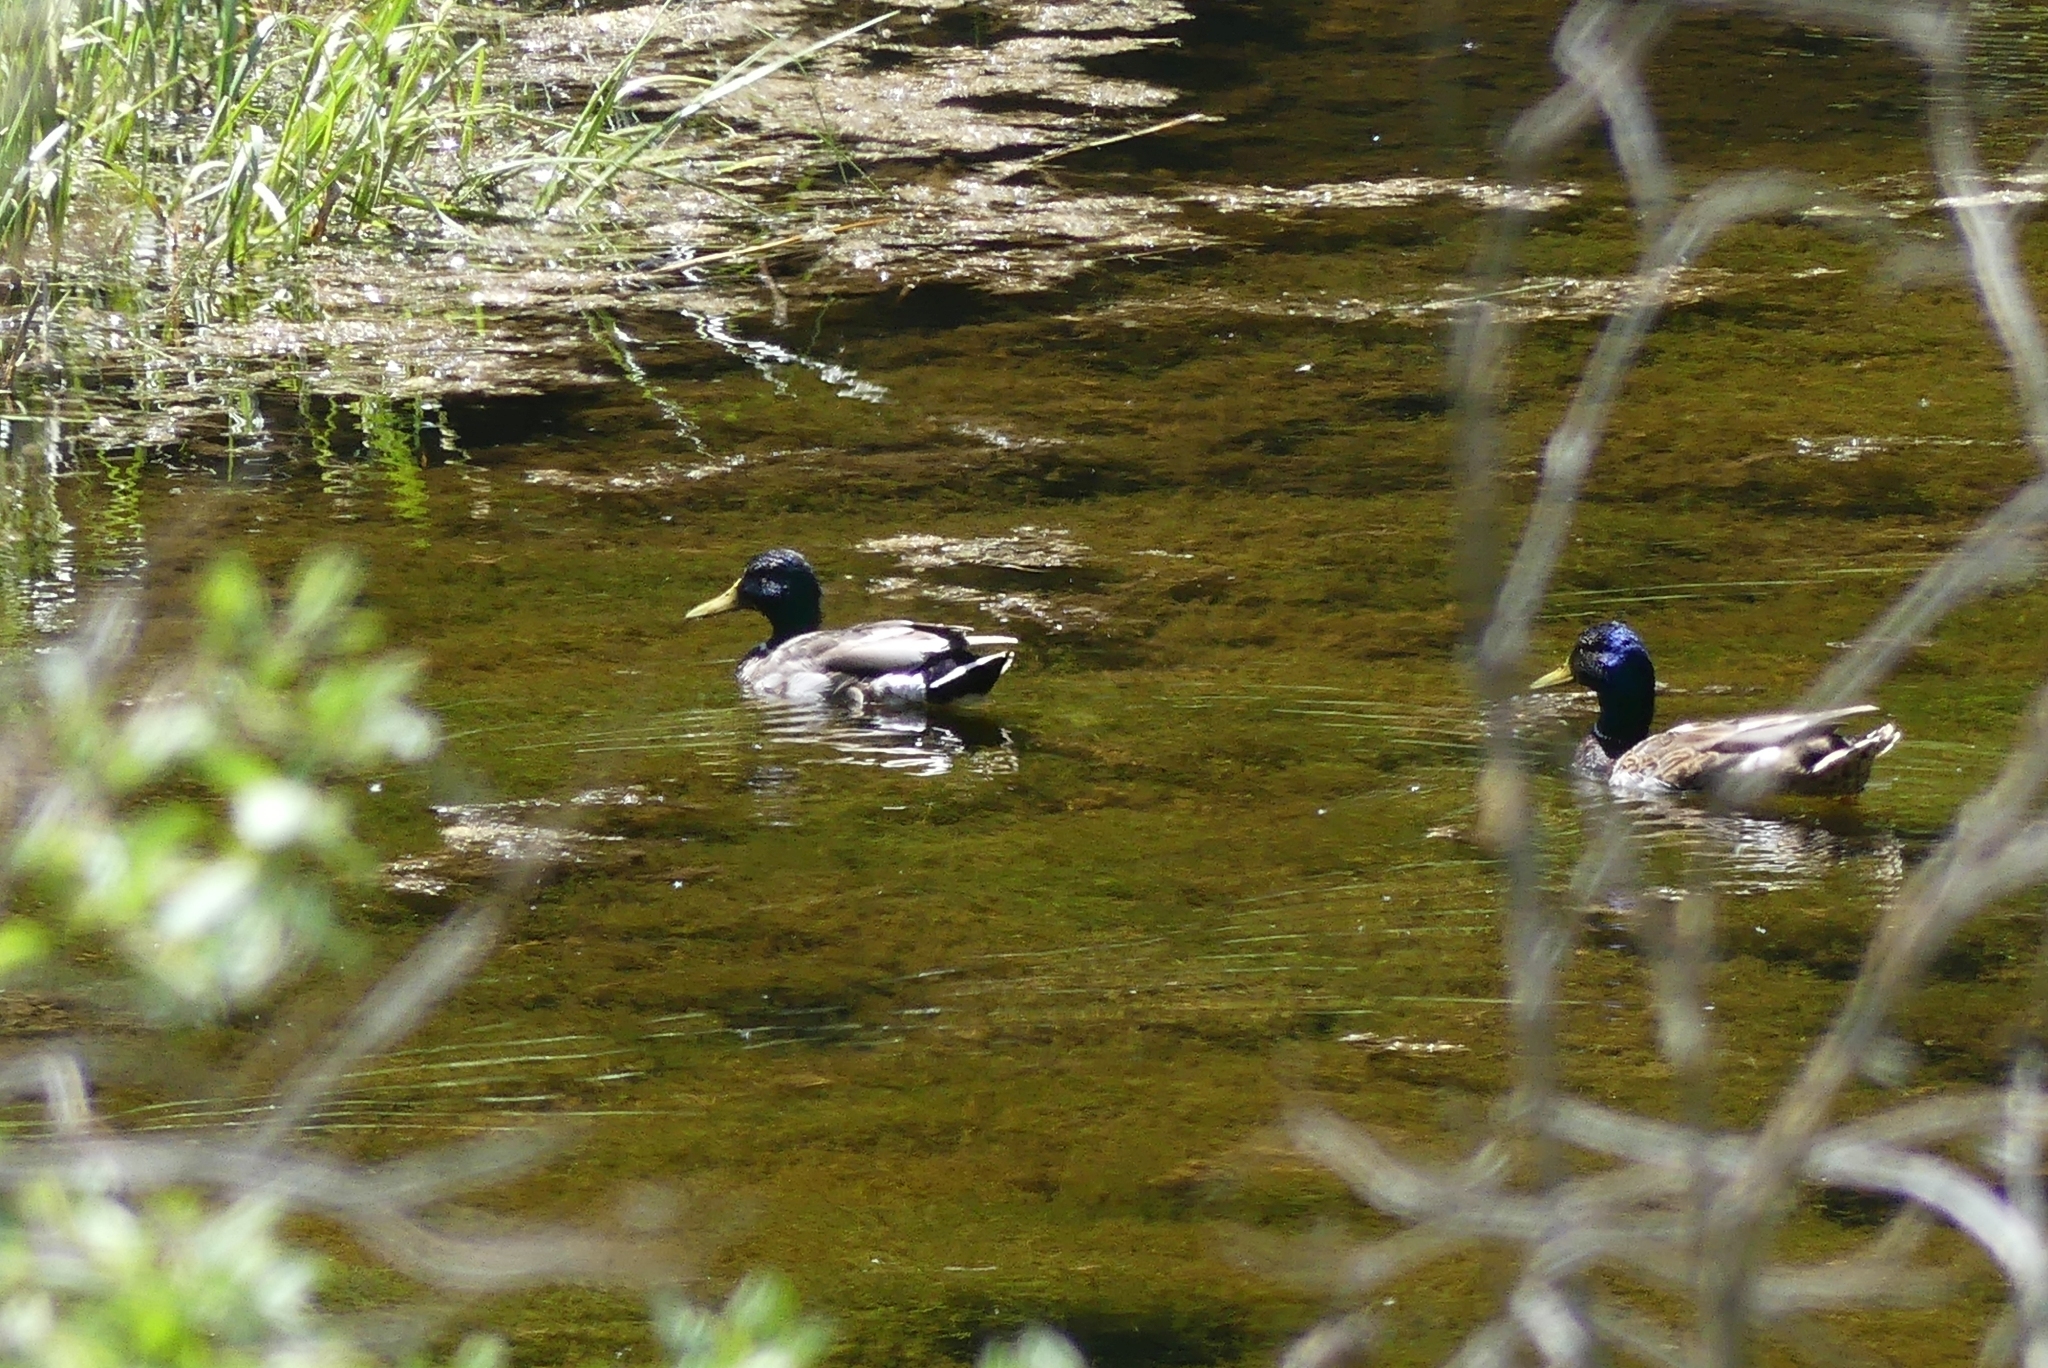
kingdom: Animalia
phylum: Chordata
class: Aves
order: Anseriformes
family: Anatidae
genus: Anas
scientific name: Anas platyrhynchos
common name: Mallard
